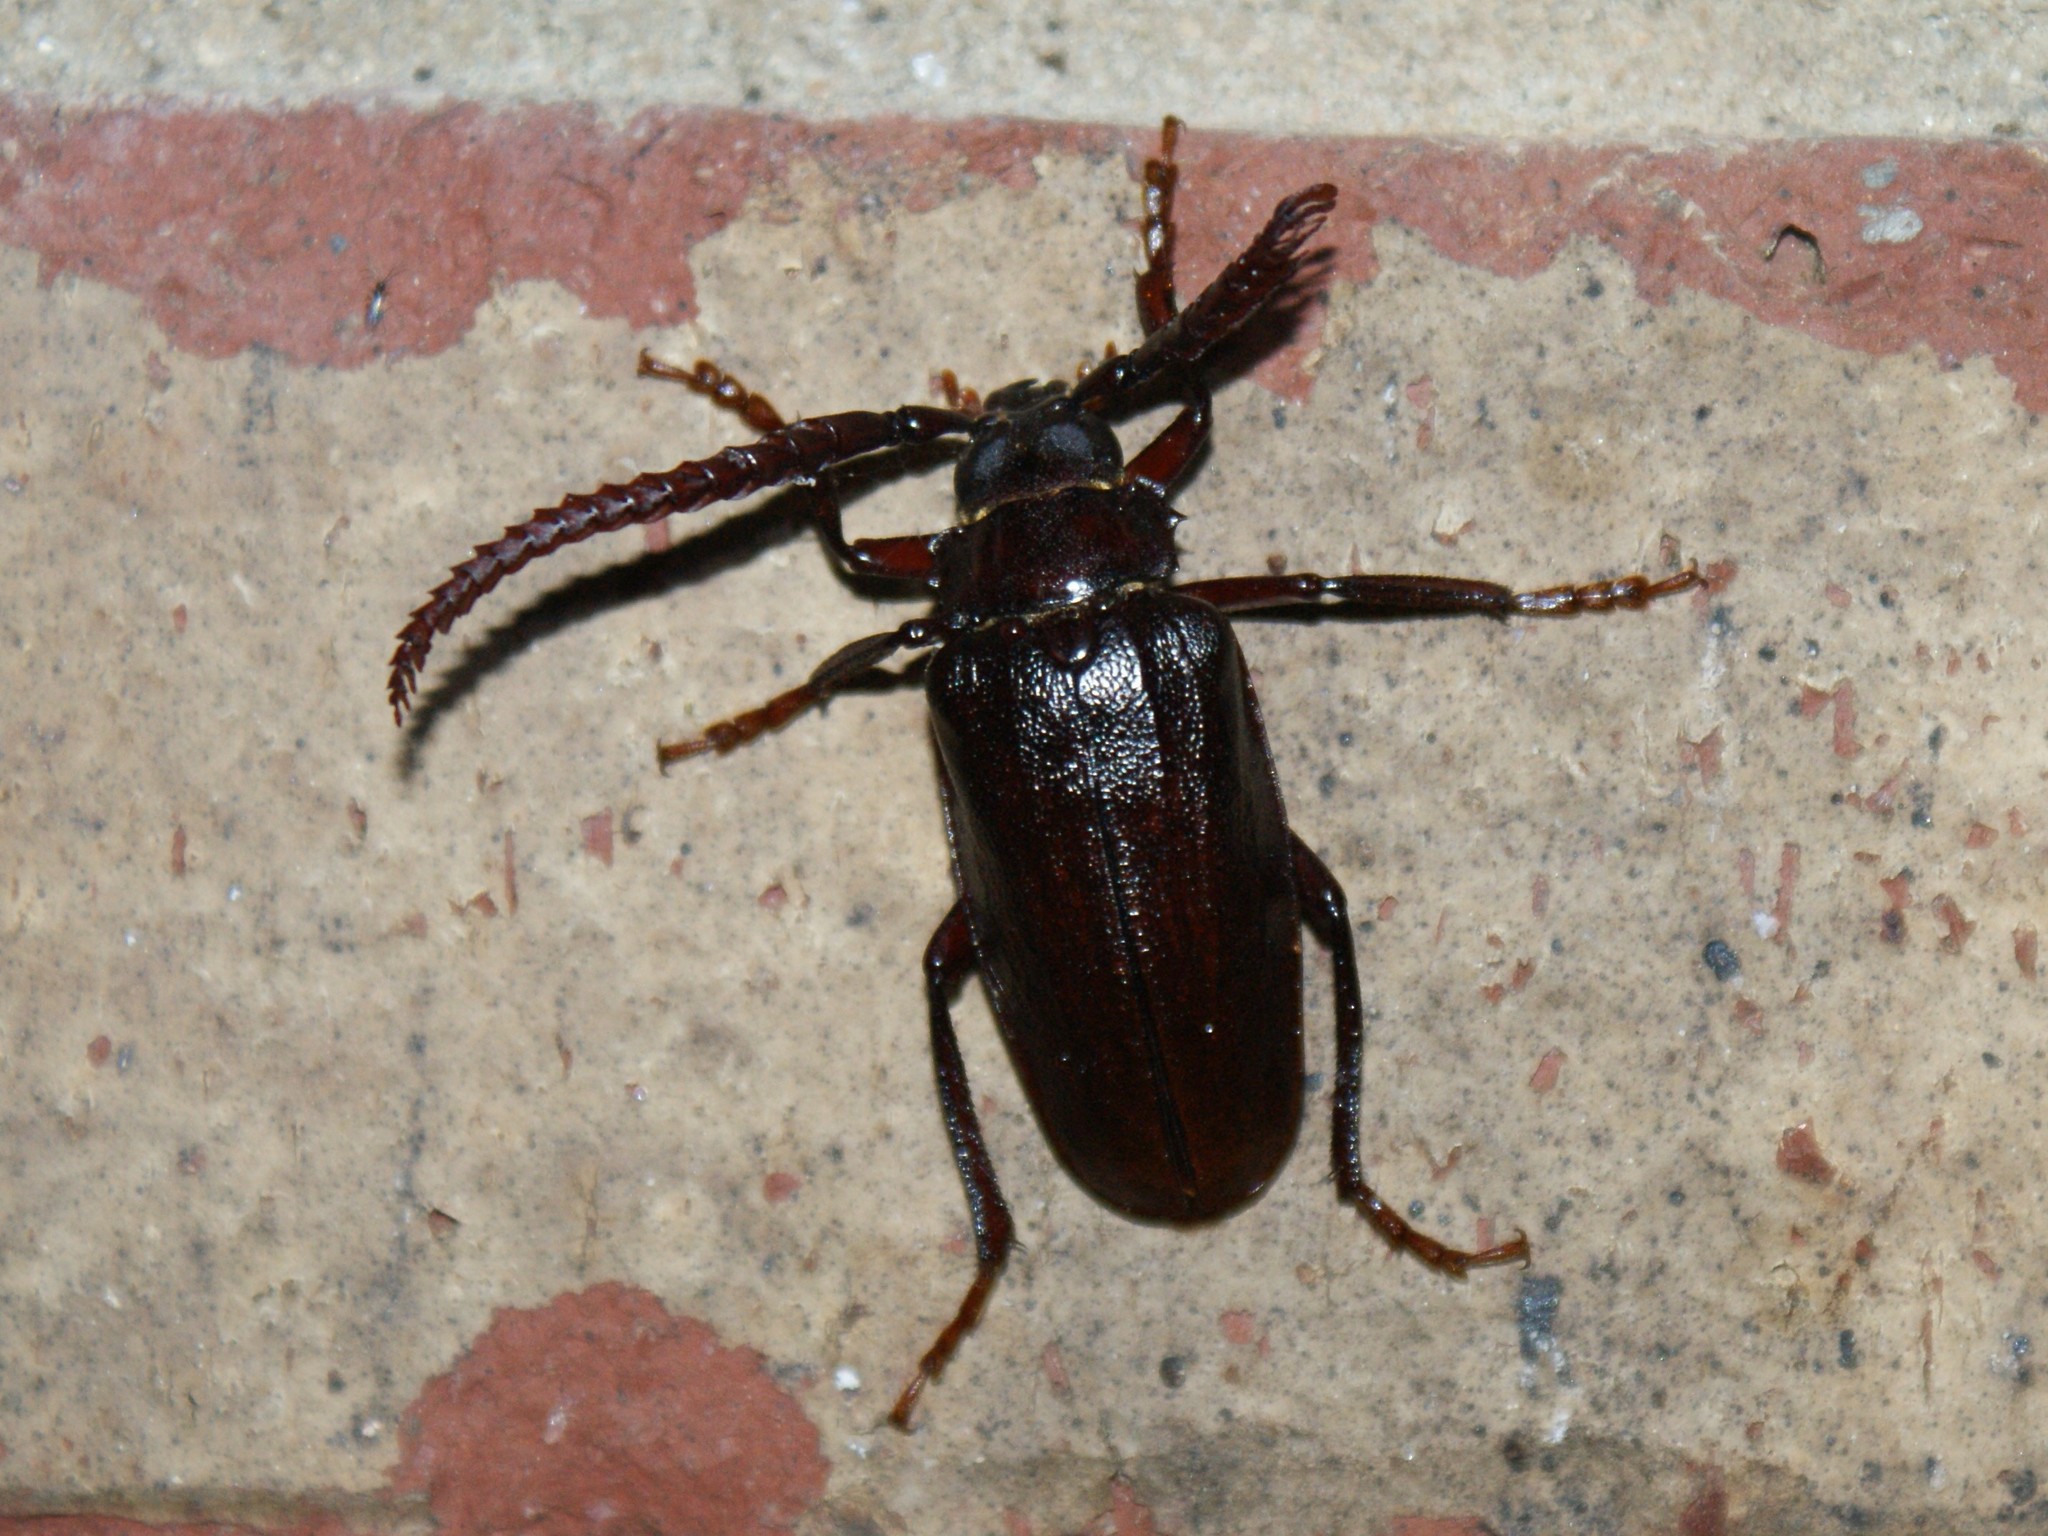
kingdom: Animalia
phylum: Arthropoda
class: Insecta
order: Coleoptera
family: Cerambycidae
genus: Prionus
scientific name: Prionus imbricornis
